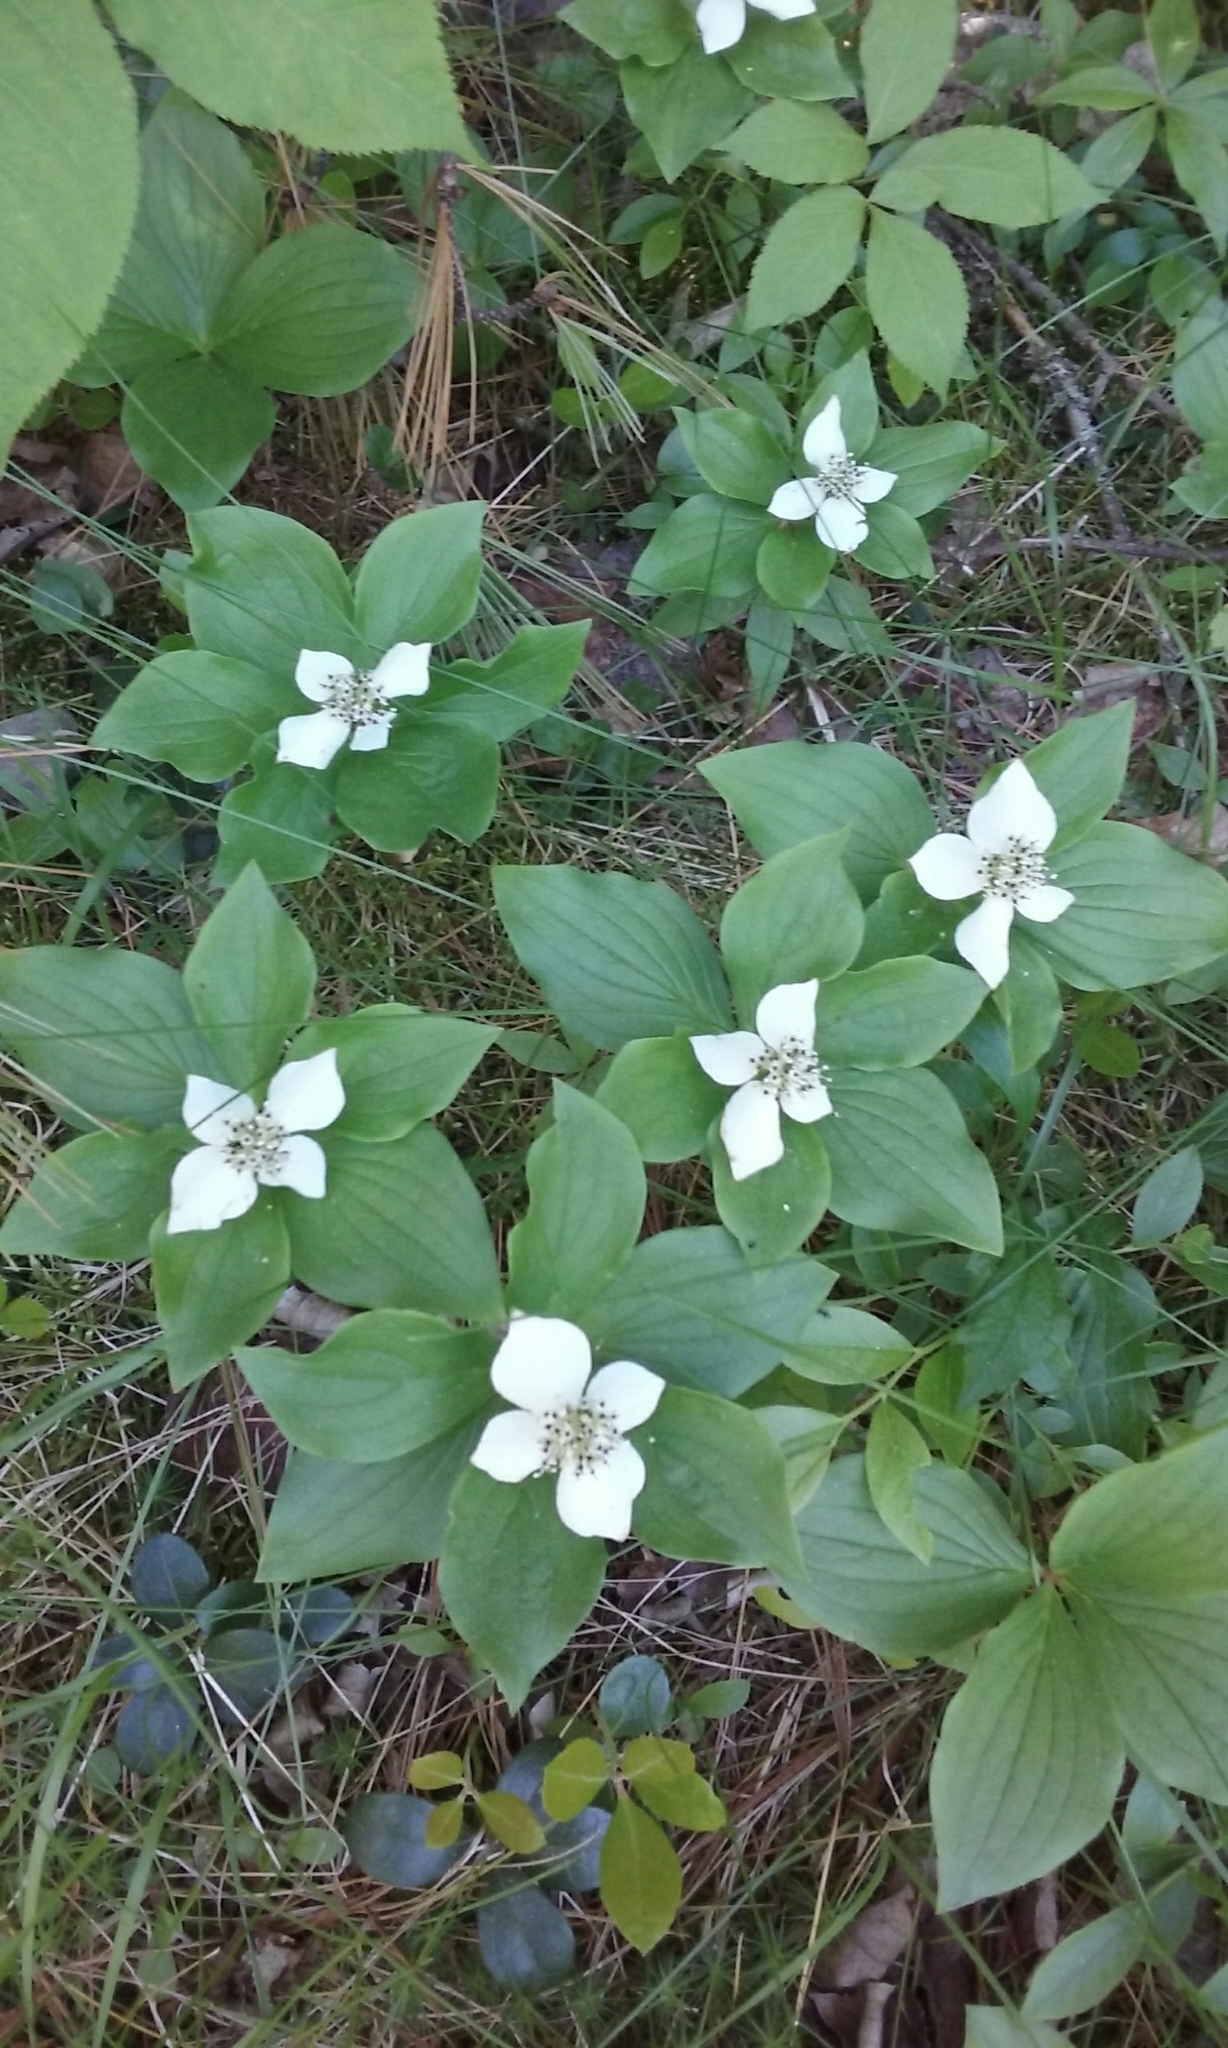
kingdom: Plantae
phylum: Tracheophyta
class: Magnoliopsida
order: Cornales
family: Cornaceae
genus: Cornus
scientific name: Cornus canadensis
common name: Creeping dogwood
